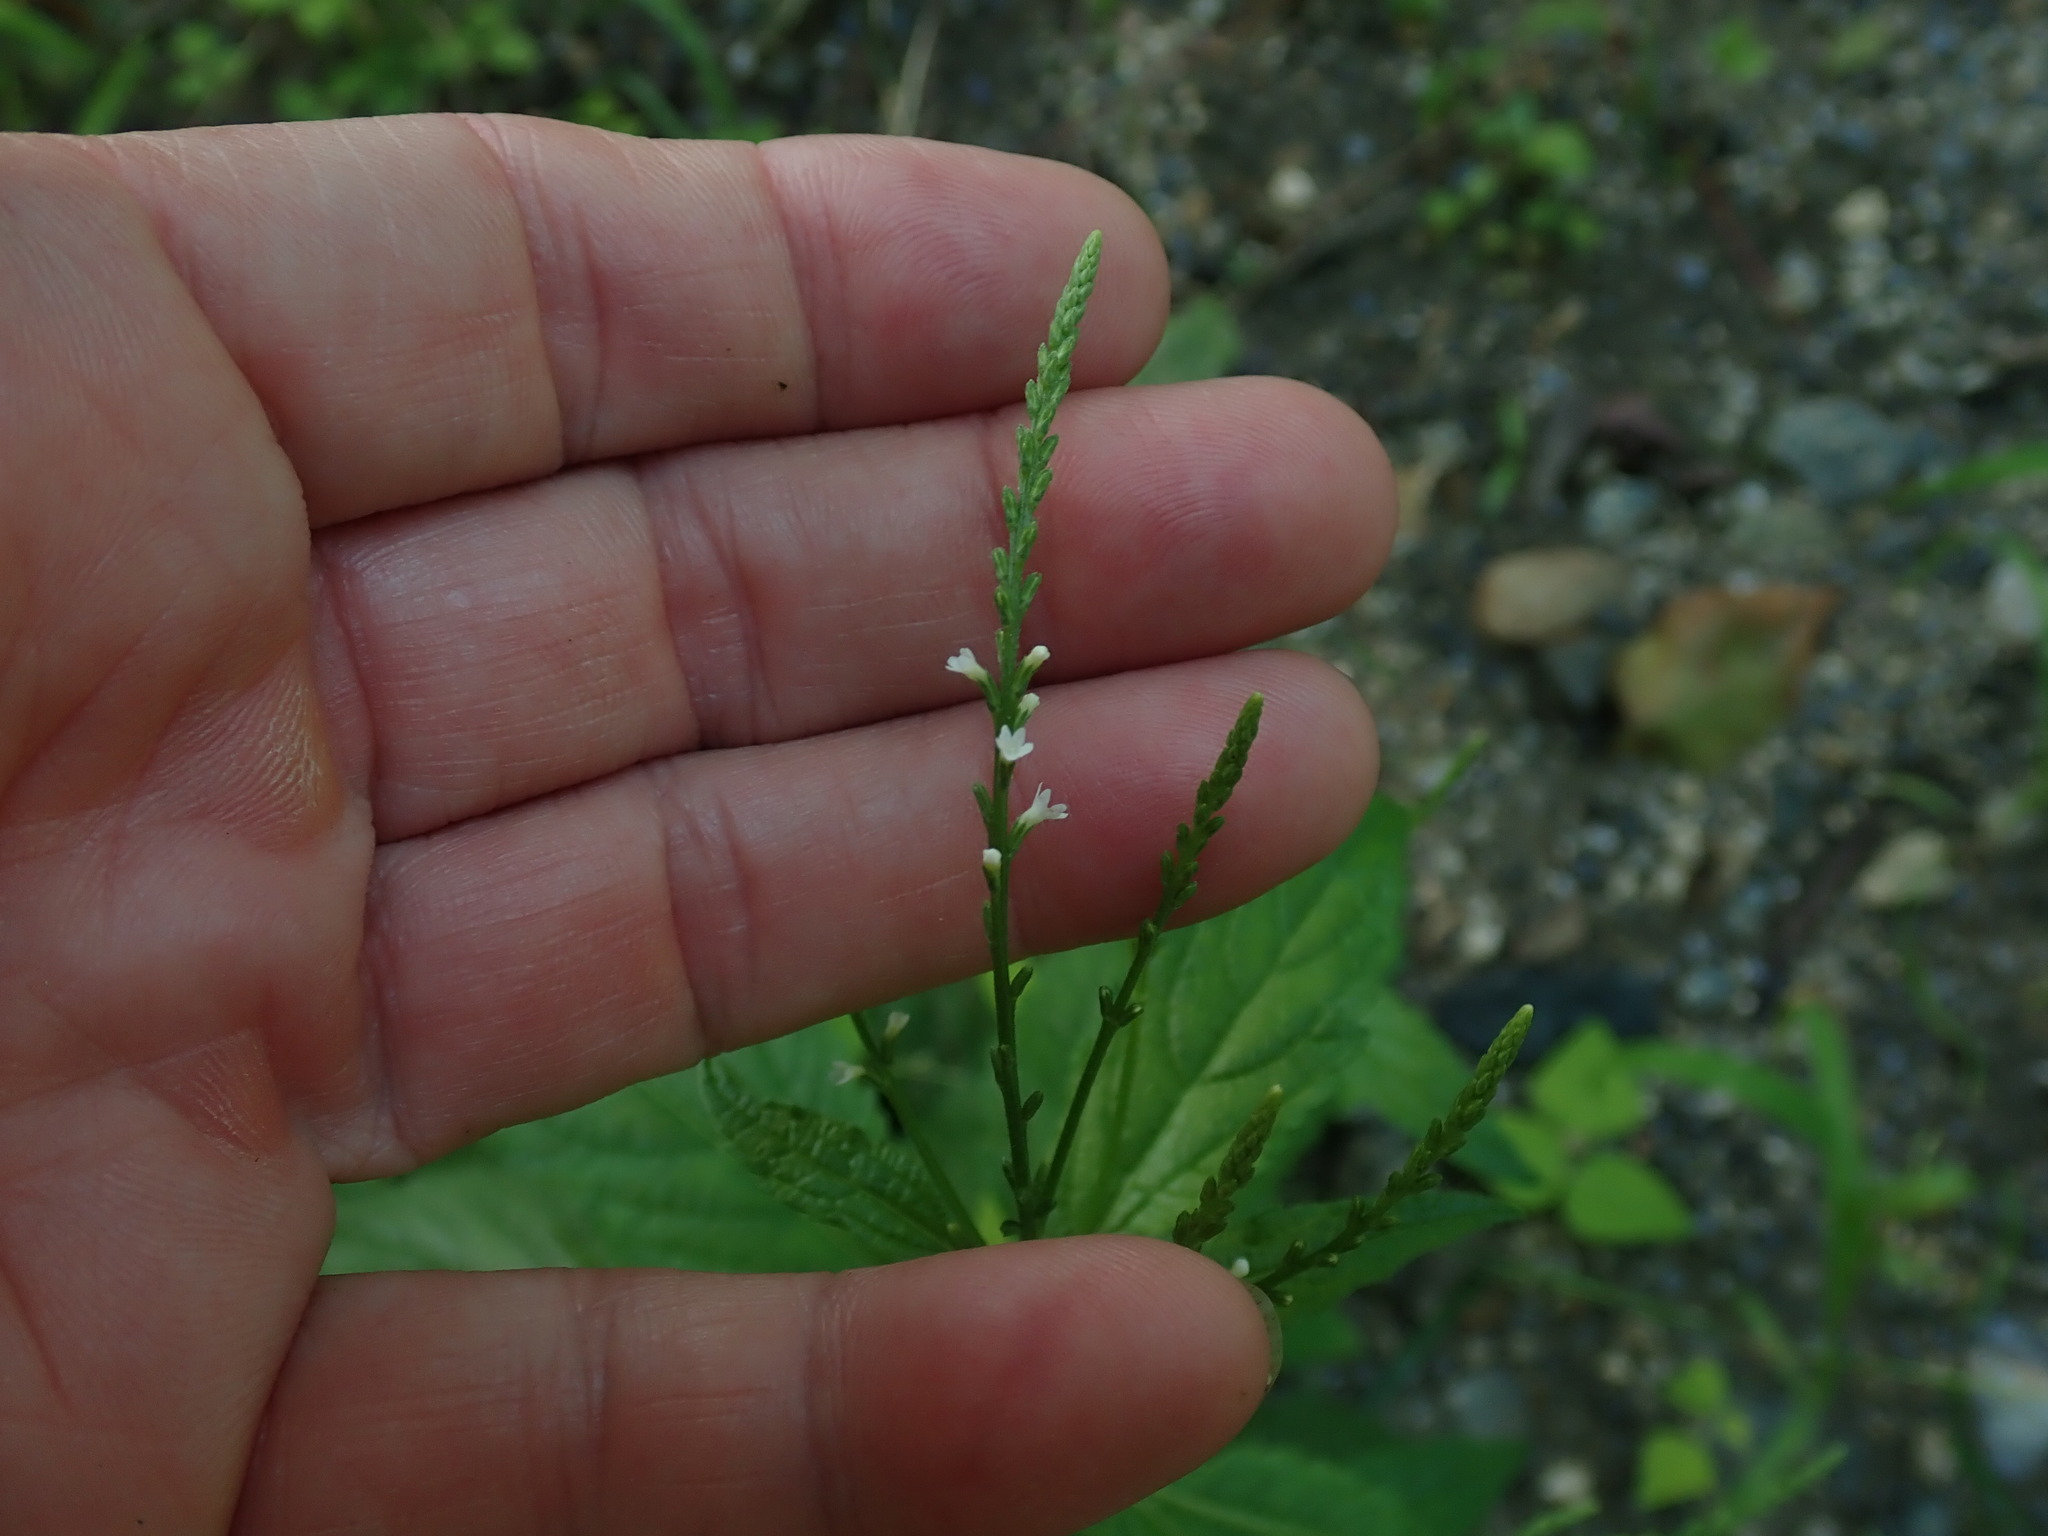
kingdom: Plantae
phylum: Tracheophyta
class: Magnoliopsida
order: Lamiales
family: Verbenaceae
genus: Verbena
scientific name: Verbena urticifolia
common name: Nettle-leaved vervain
